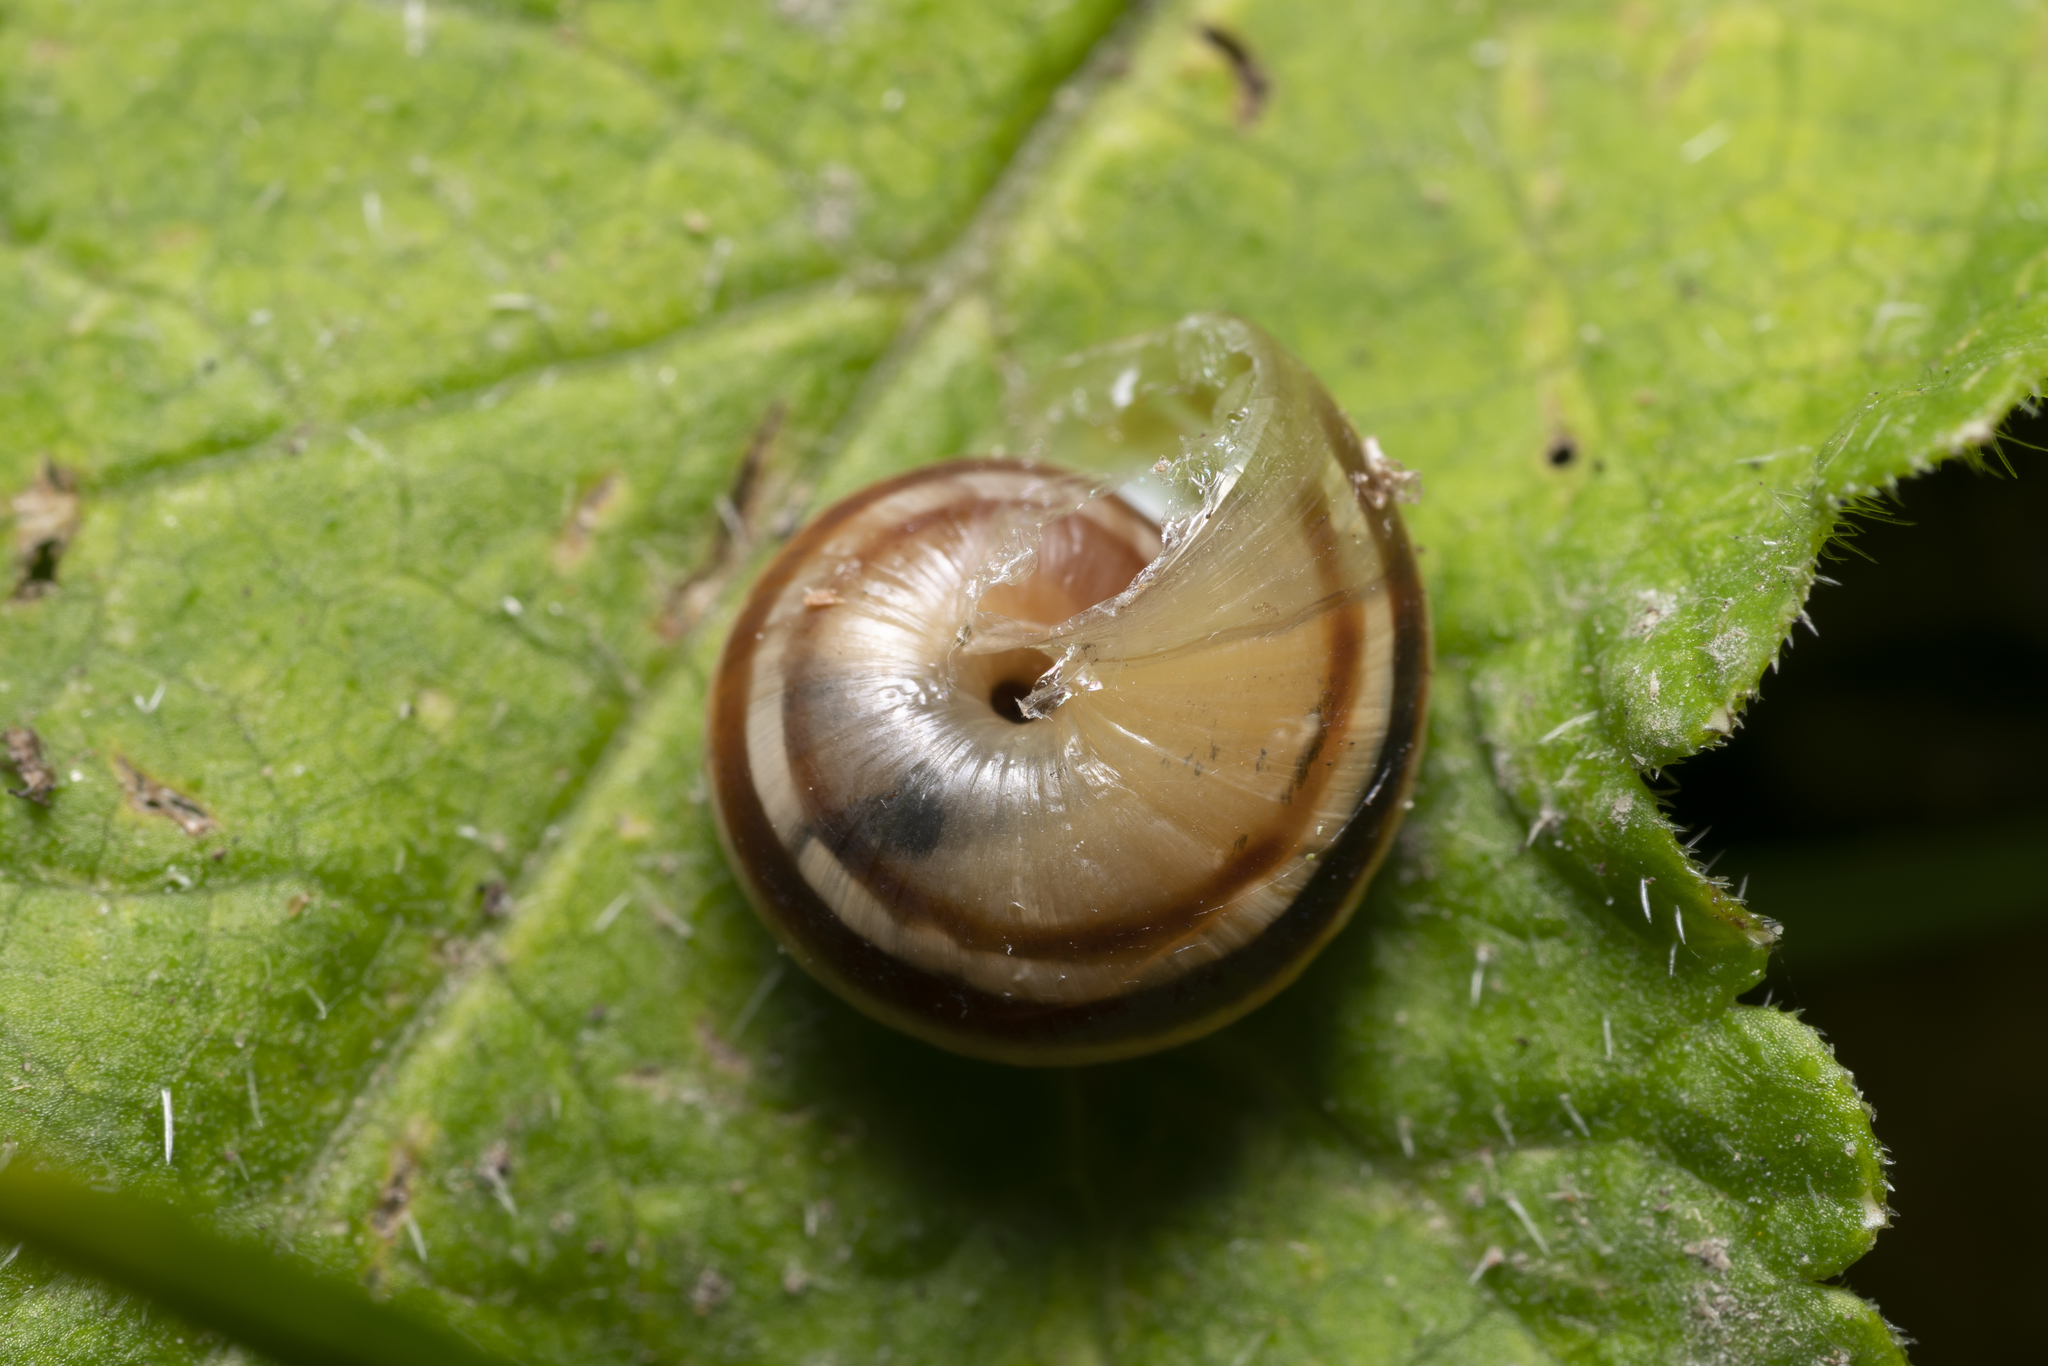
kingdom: Animalia
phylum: Mollusca
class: Gastropoda
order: Stylommatophora
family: Helicidae
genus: Macularia
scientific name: Macularia sylvatica
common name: Hélice sylvatique
